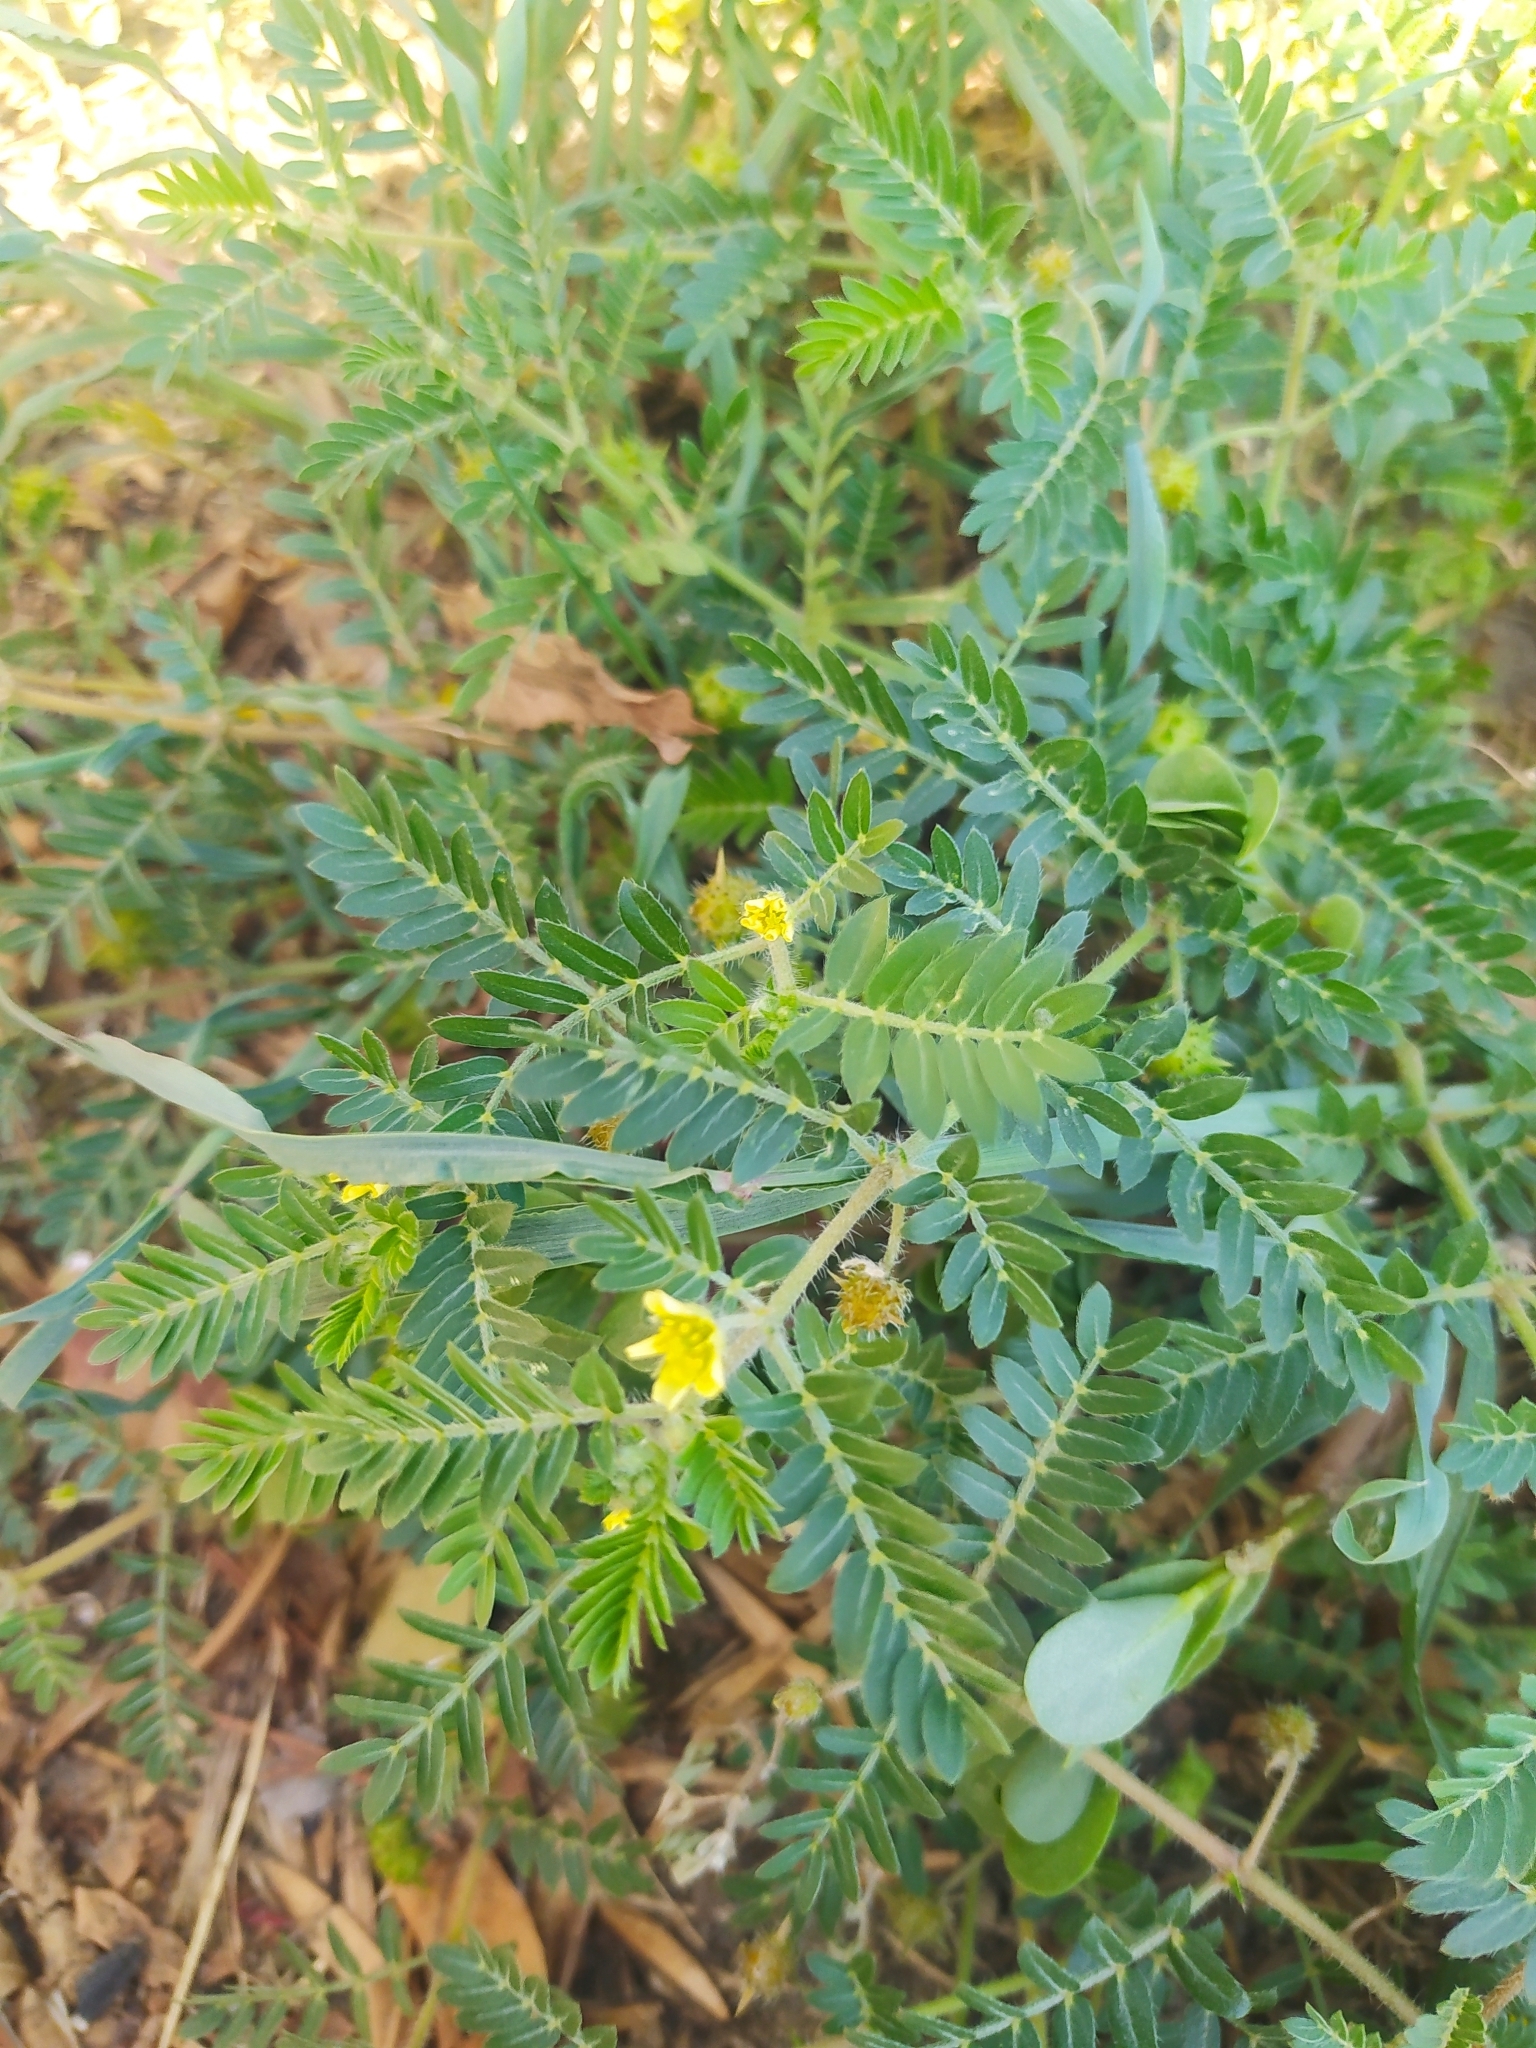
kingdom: Plantae
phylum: Tracheophyta
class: Magnoliopsida
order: Zygophyllales
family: Zygophyllaceae
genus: Tribulus
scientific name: Tribulus terrestris
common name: Puncturevine
